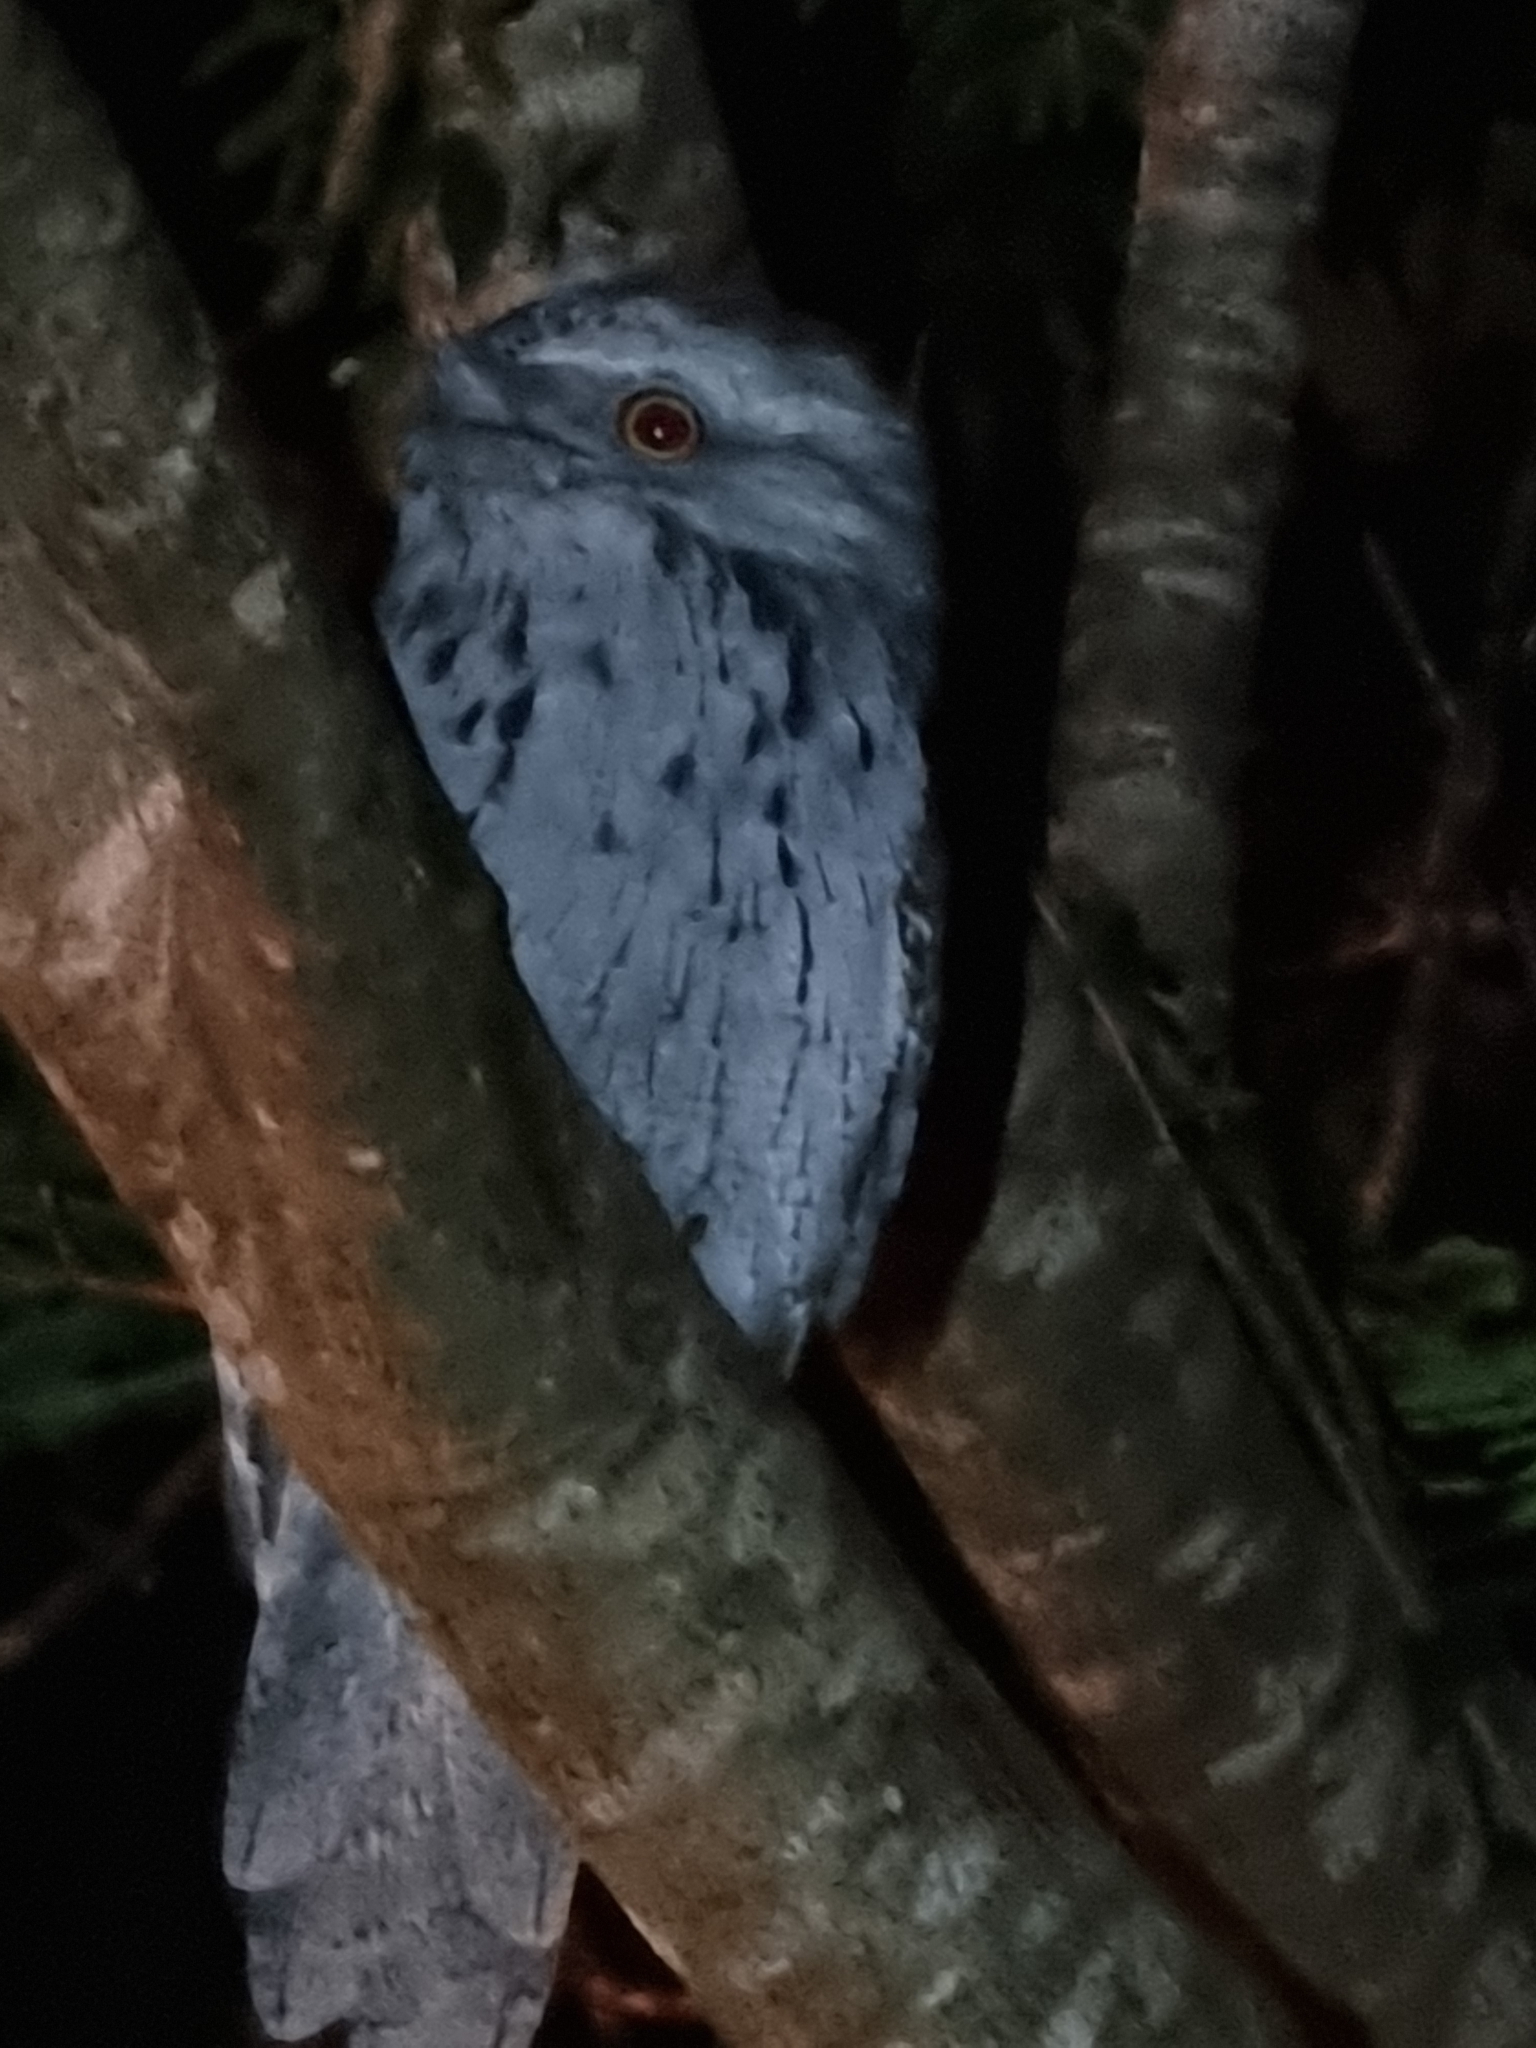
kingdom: Animalia
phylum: Chordata
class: Aves
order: Caprimulgiformes
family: Podargidae
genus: Podargus
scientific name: Podargus strigoides
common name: Tawny frogmouth
